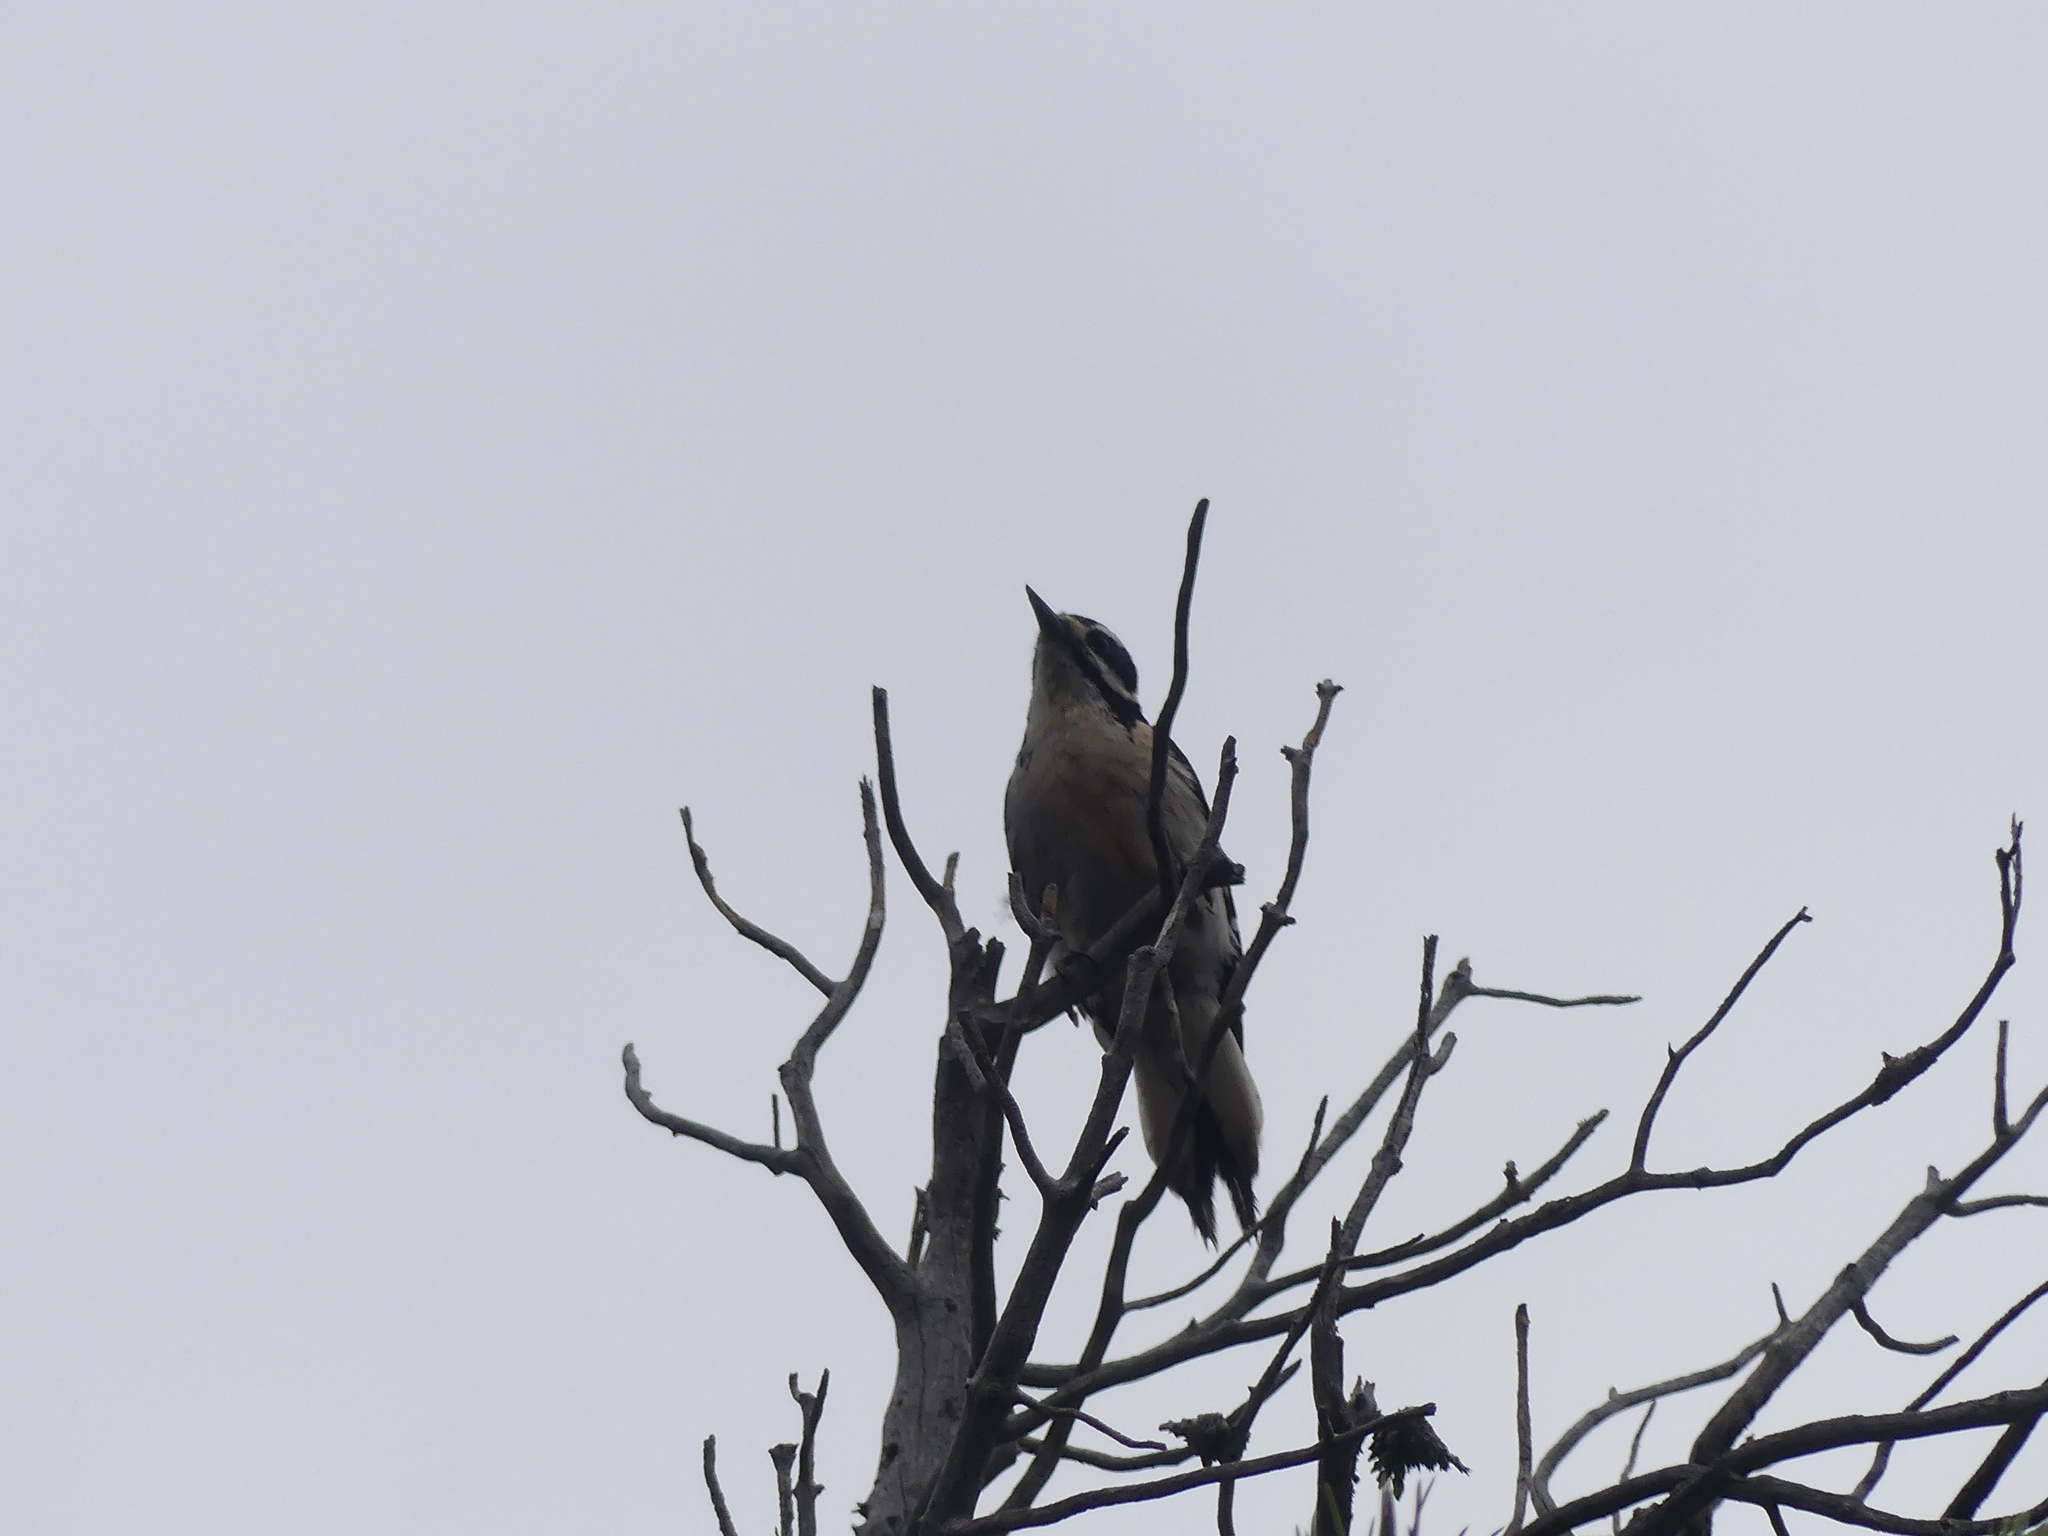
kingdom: Animalia
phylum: Chordata
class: Aves
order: Piciformes
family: Picidae
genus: Leuconotopicus
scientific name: Leuconotopicus villosus
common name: Hairy woodpecker
